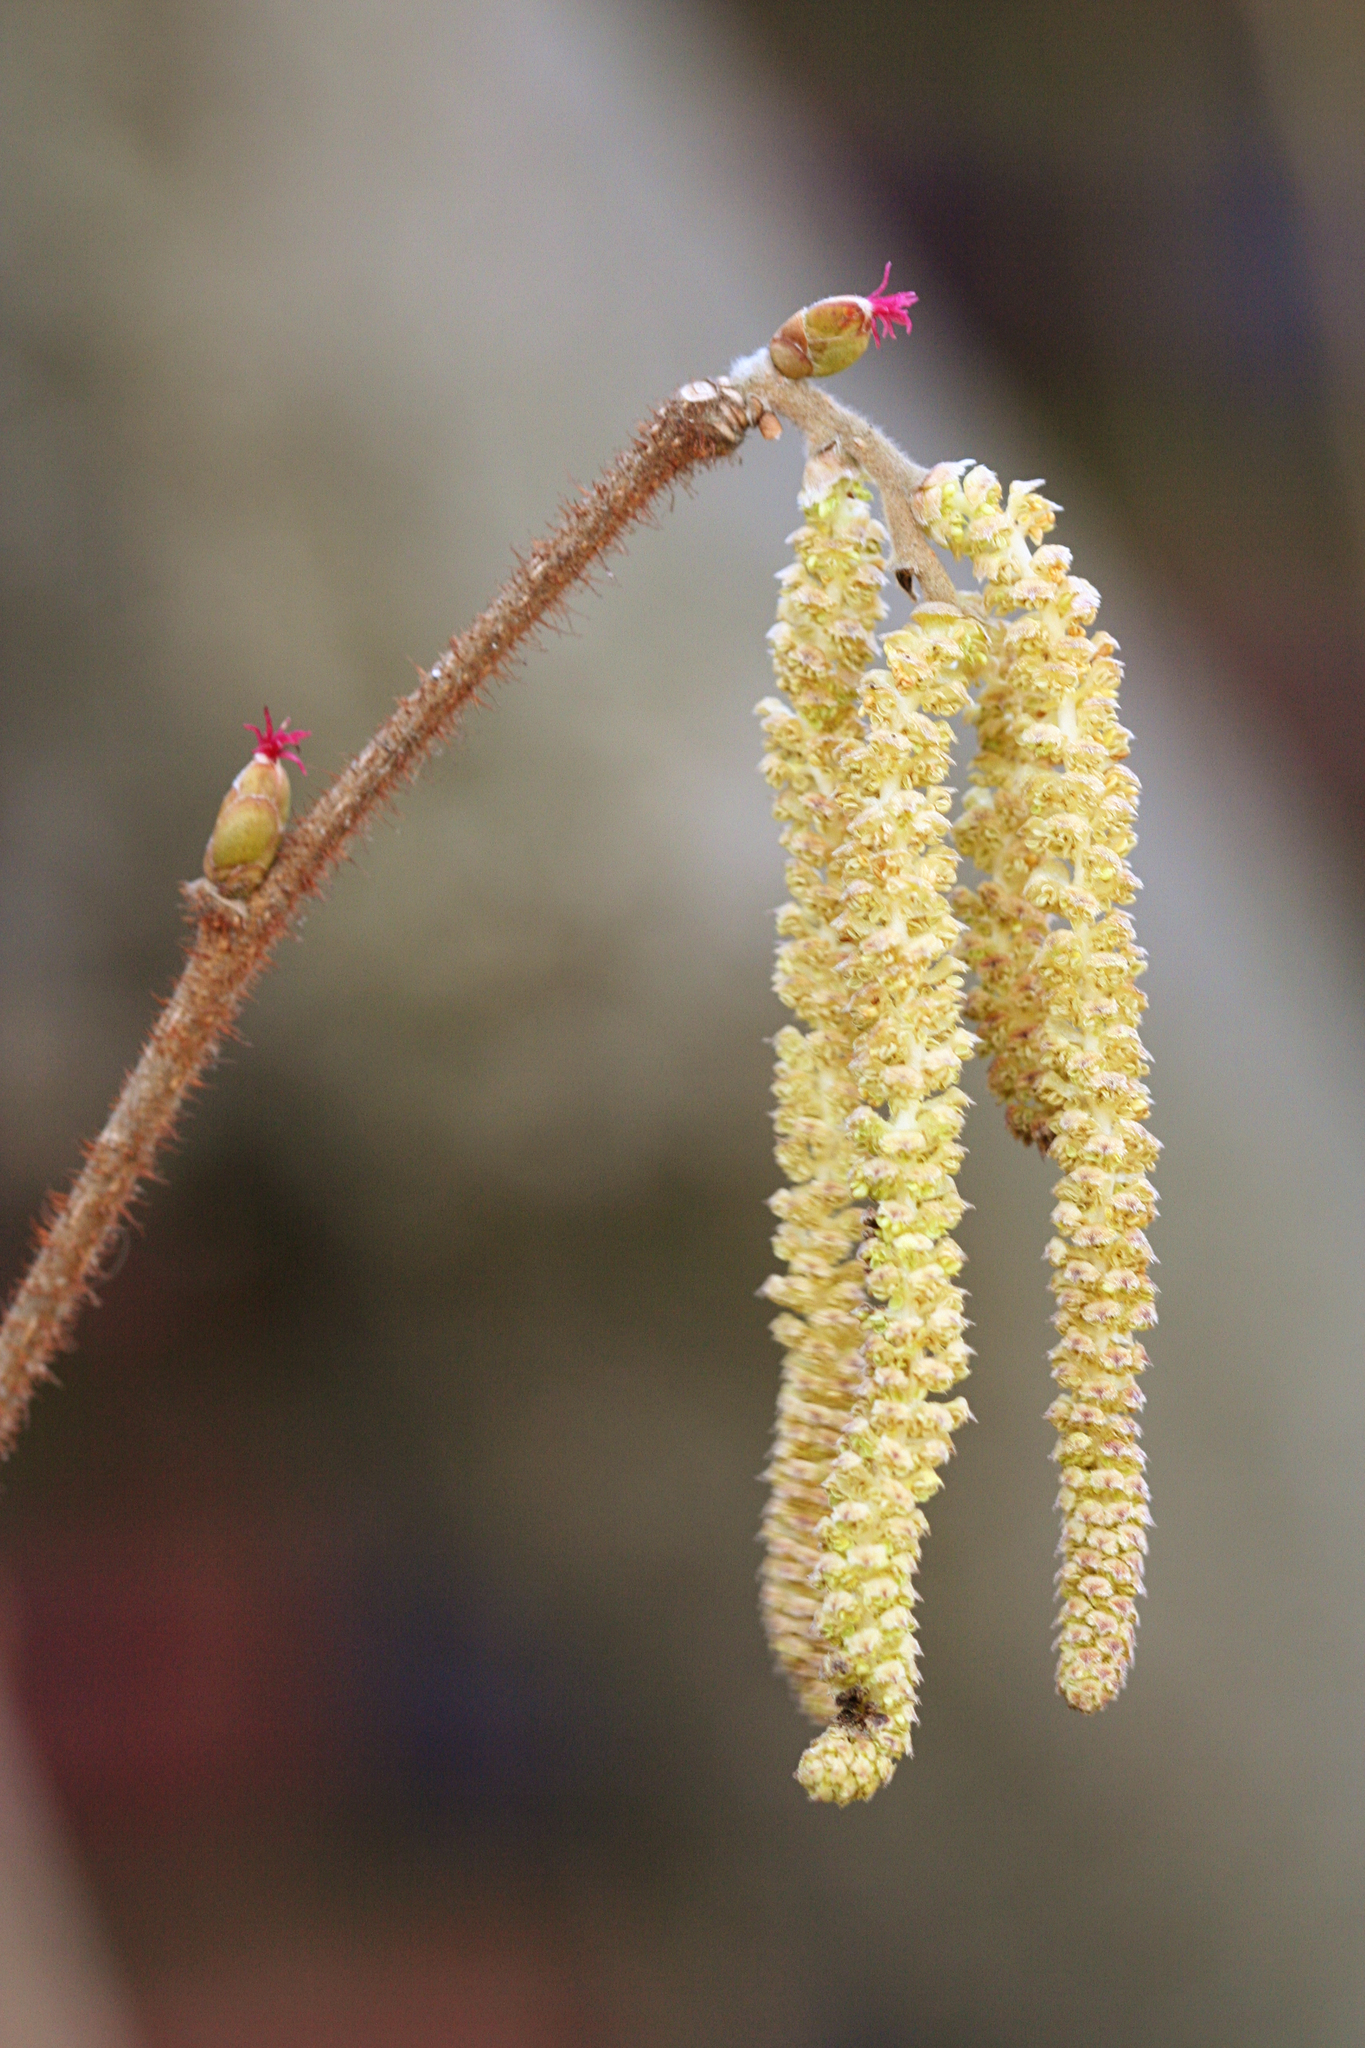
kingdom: Plantae
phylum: Tracheophyta
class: Magnoliopsida
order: Fagales
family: Betulaceae
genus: Corylus
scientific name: Corylus americana
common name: American hazel
